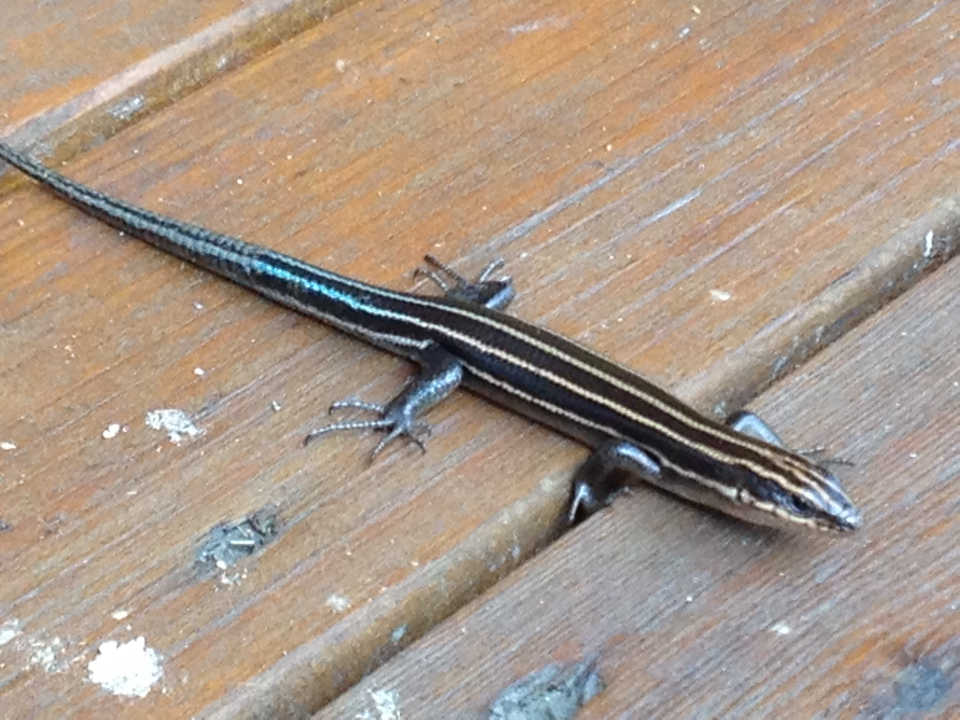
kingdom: Animalia
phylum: Chordata
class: Squamata
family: Scincidae
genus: Plestiodon
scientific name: Plestiodon fasciatus
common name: Five-lined skink
